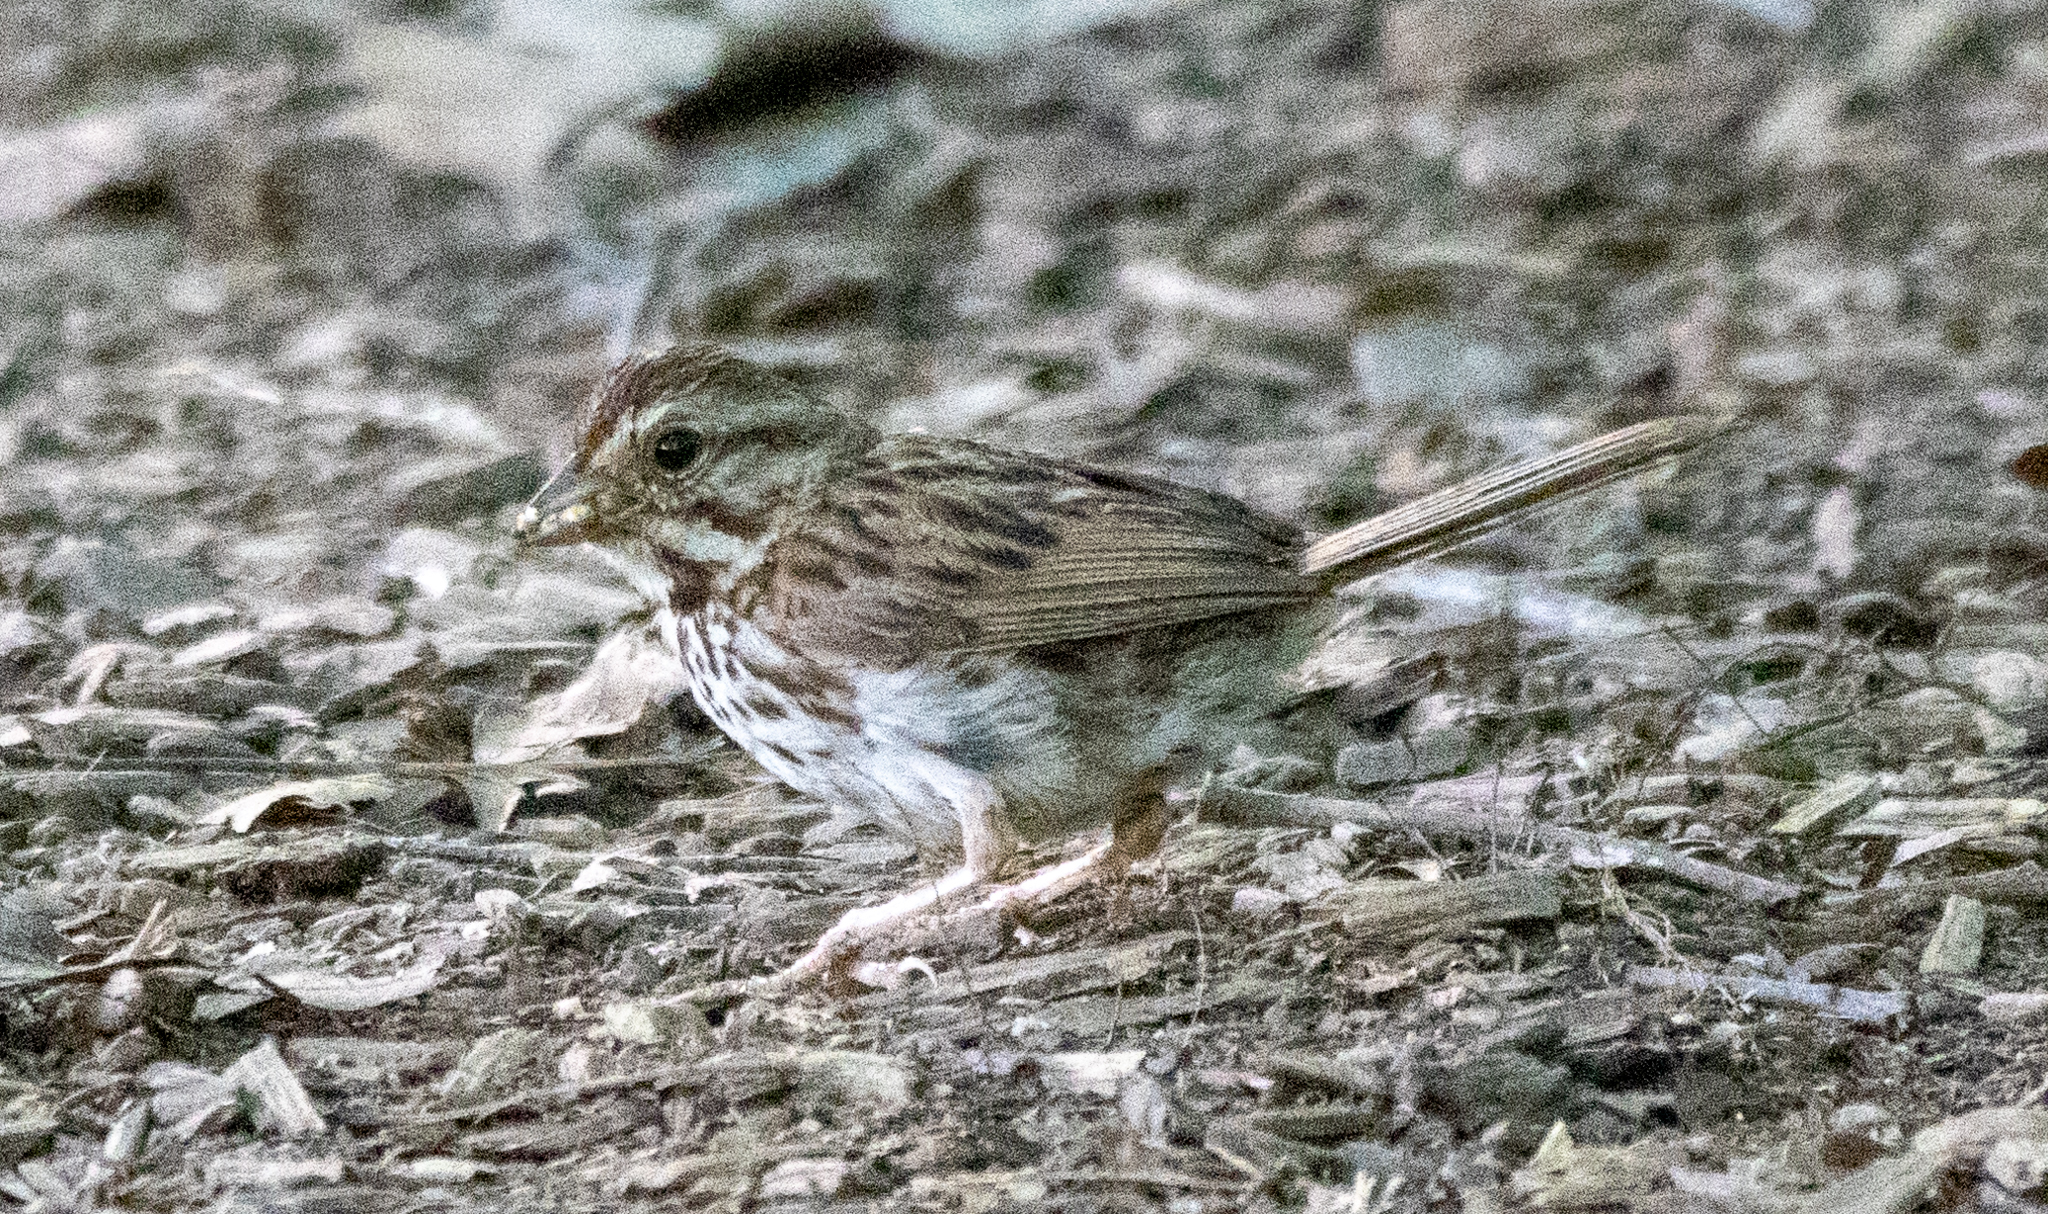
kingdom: Animalia
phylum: Chordata
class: Aves
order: Passeriformes
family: Passerellidae
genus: Melospiza
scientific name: Melospiza melodia
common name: Song sparrow
